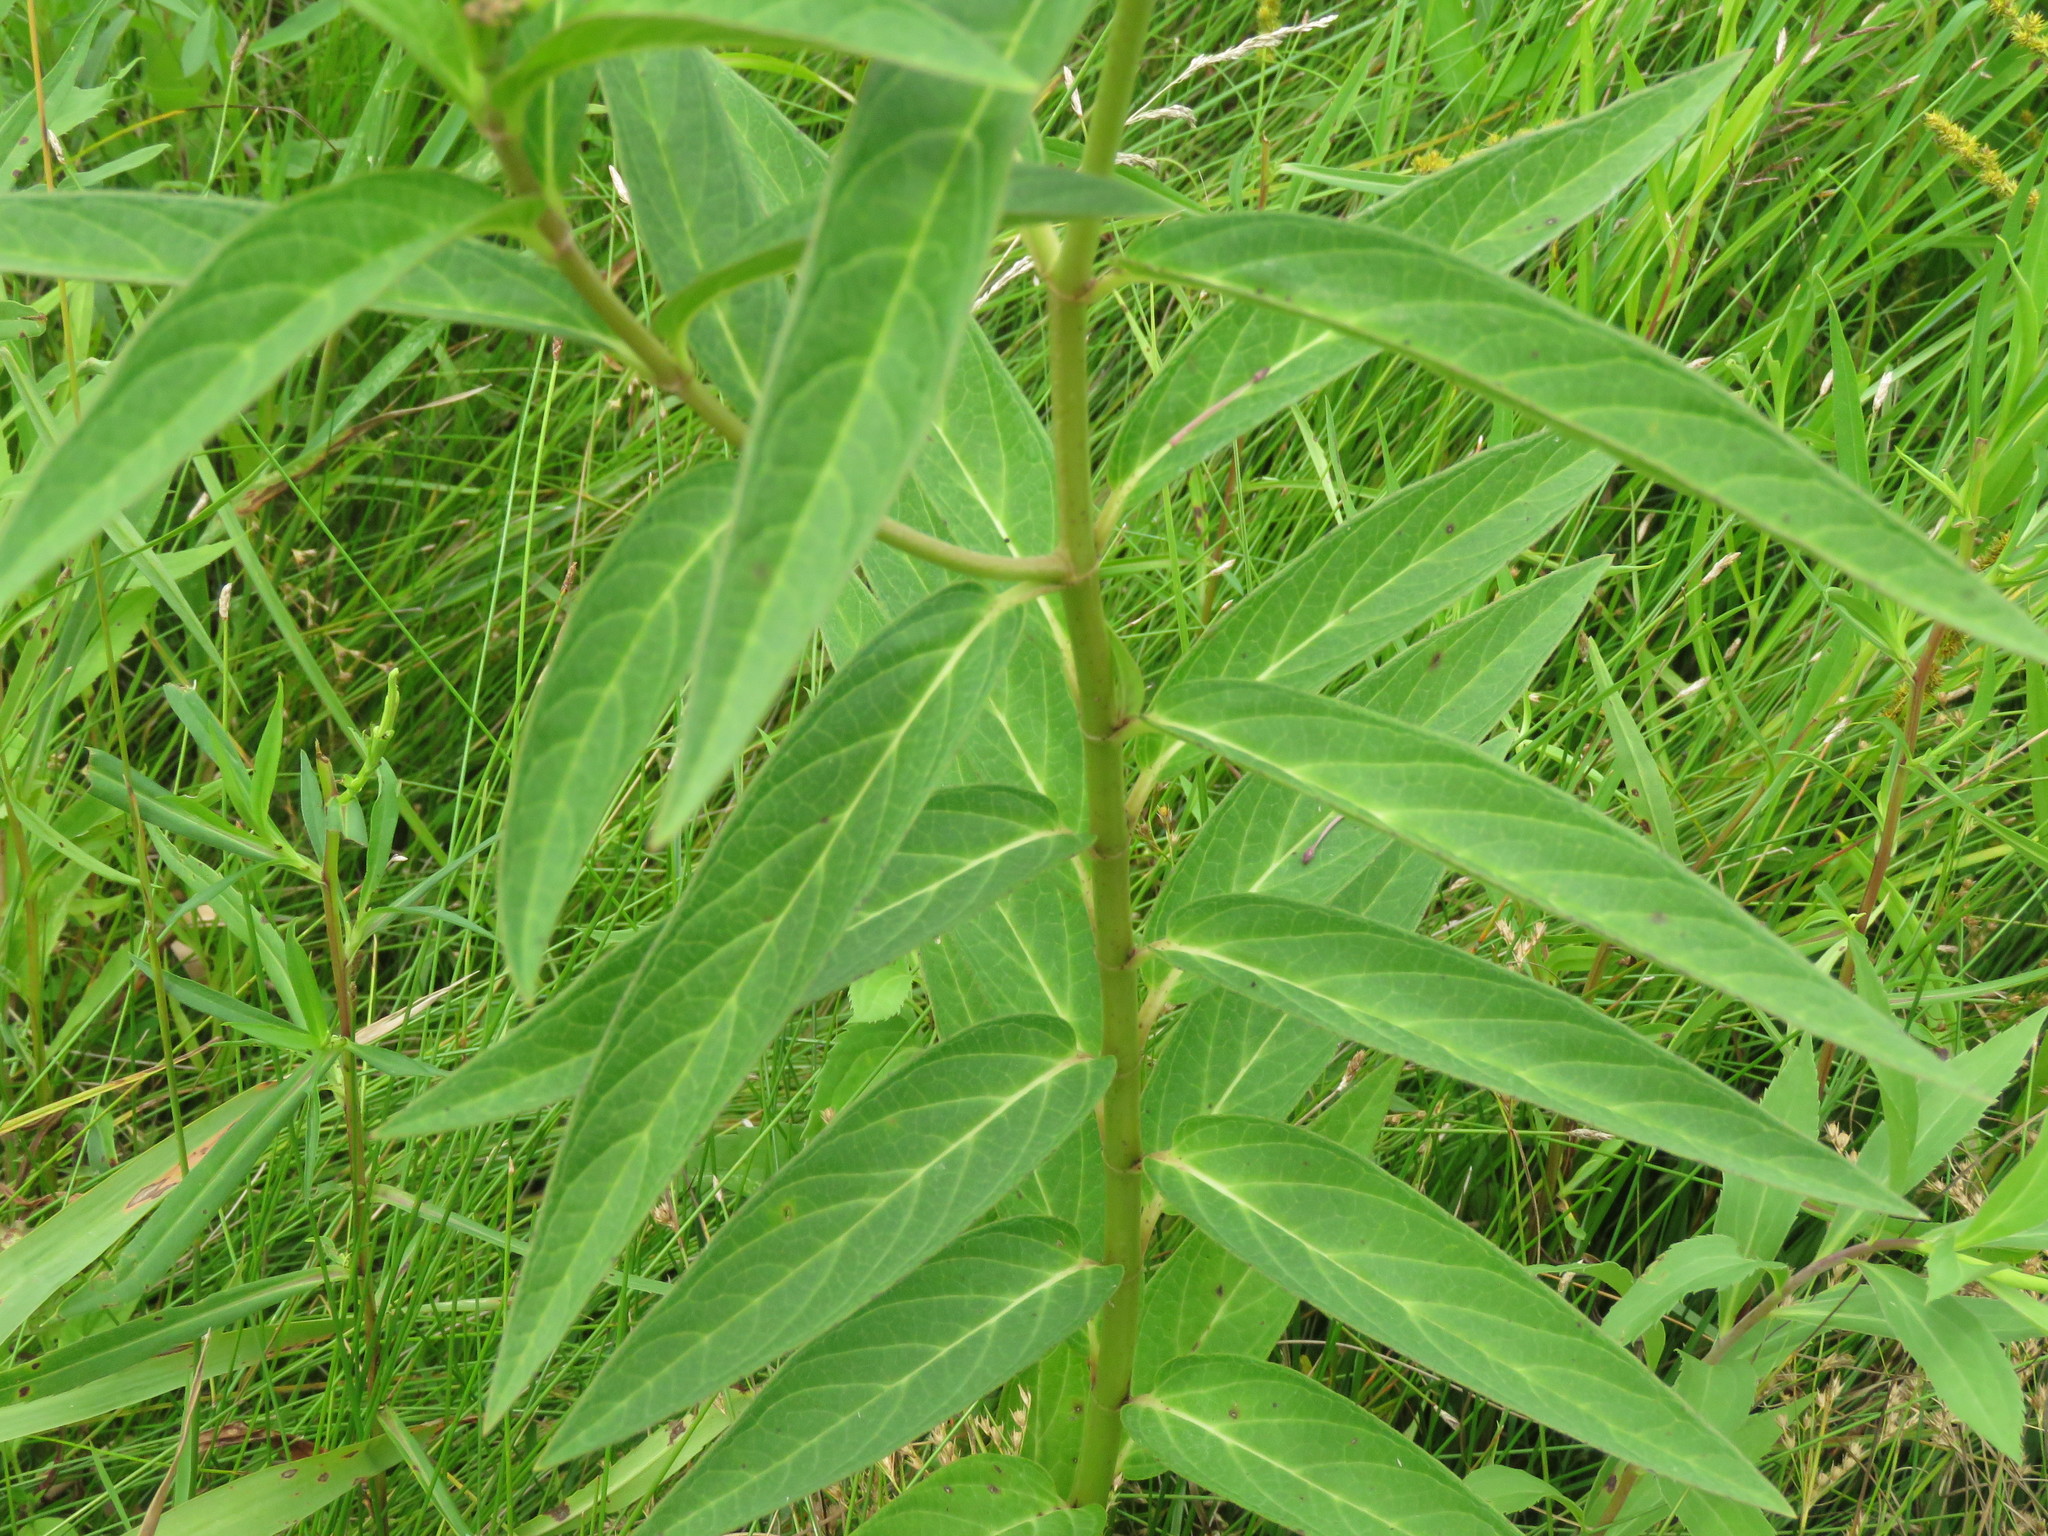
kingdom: Plantae
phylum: Tracheophyta
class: Magnoliopsida
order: Gentianales
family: Apocynaceae
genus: Asclepias
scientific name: Asclepias incarnata
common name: Swamp milkweed
